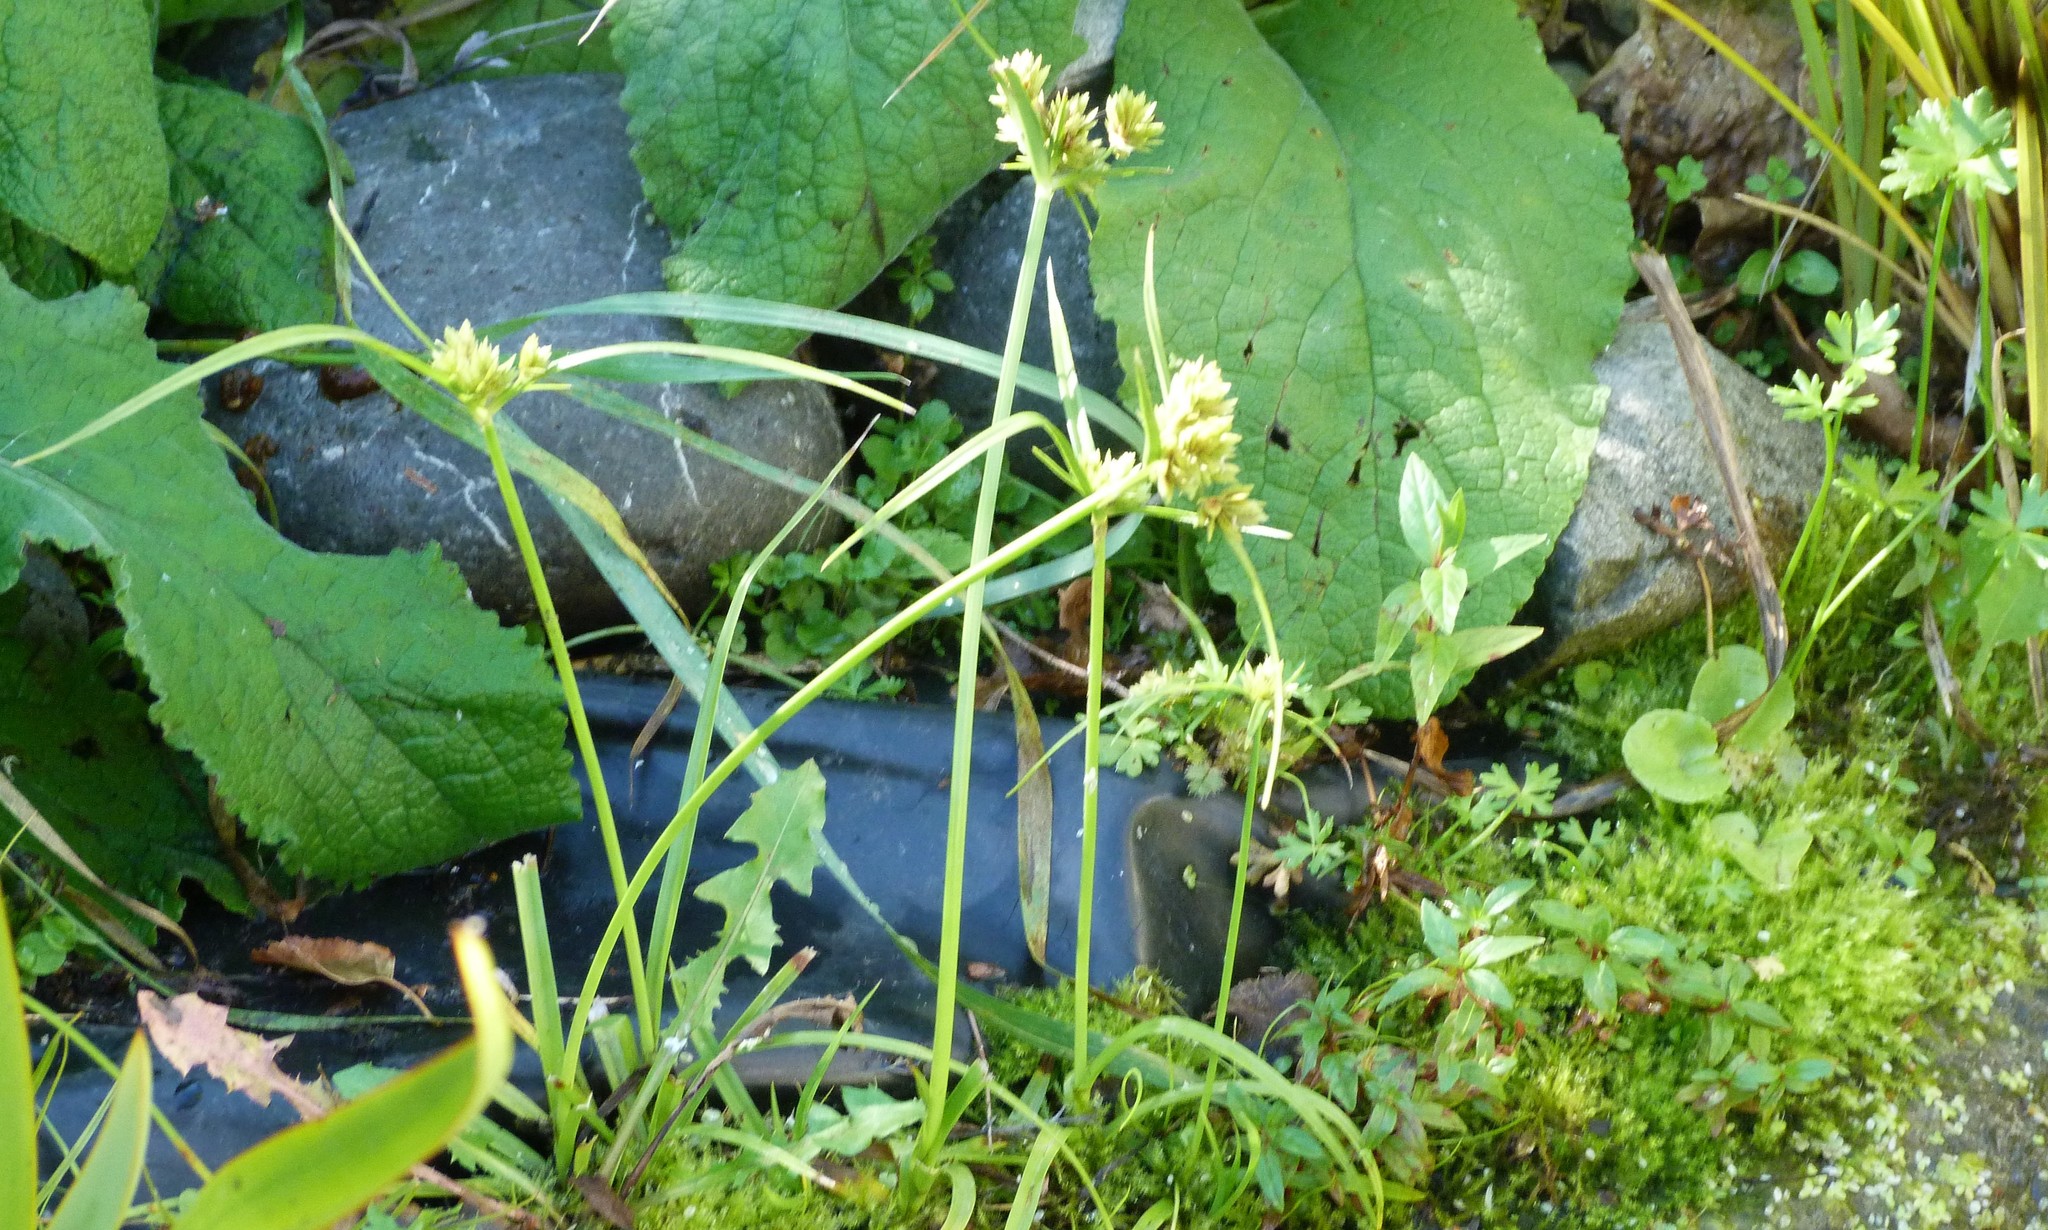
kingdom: Plantae
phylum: Tracheophyta
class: Liliopsida
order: Poales
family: Cyperaceae
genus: Cyperus
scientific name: Cyperus eragrostis
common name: Tall flatsedge
